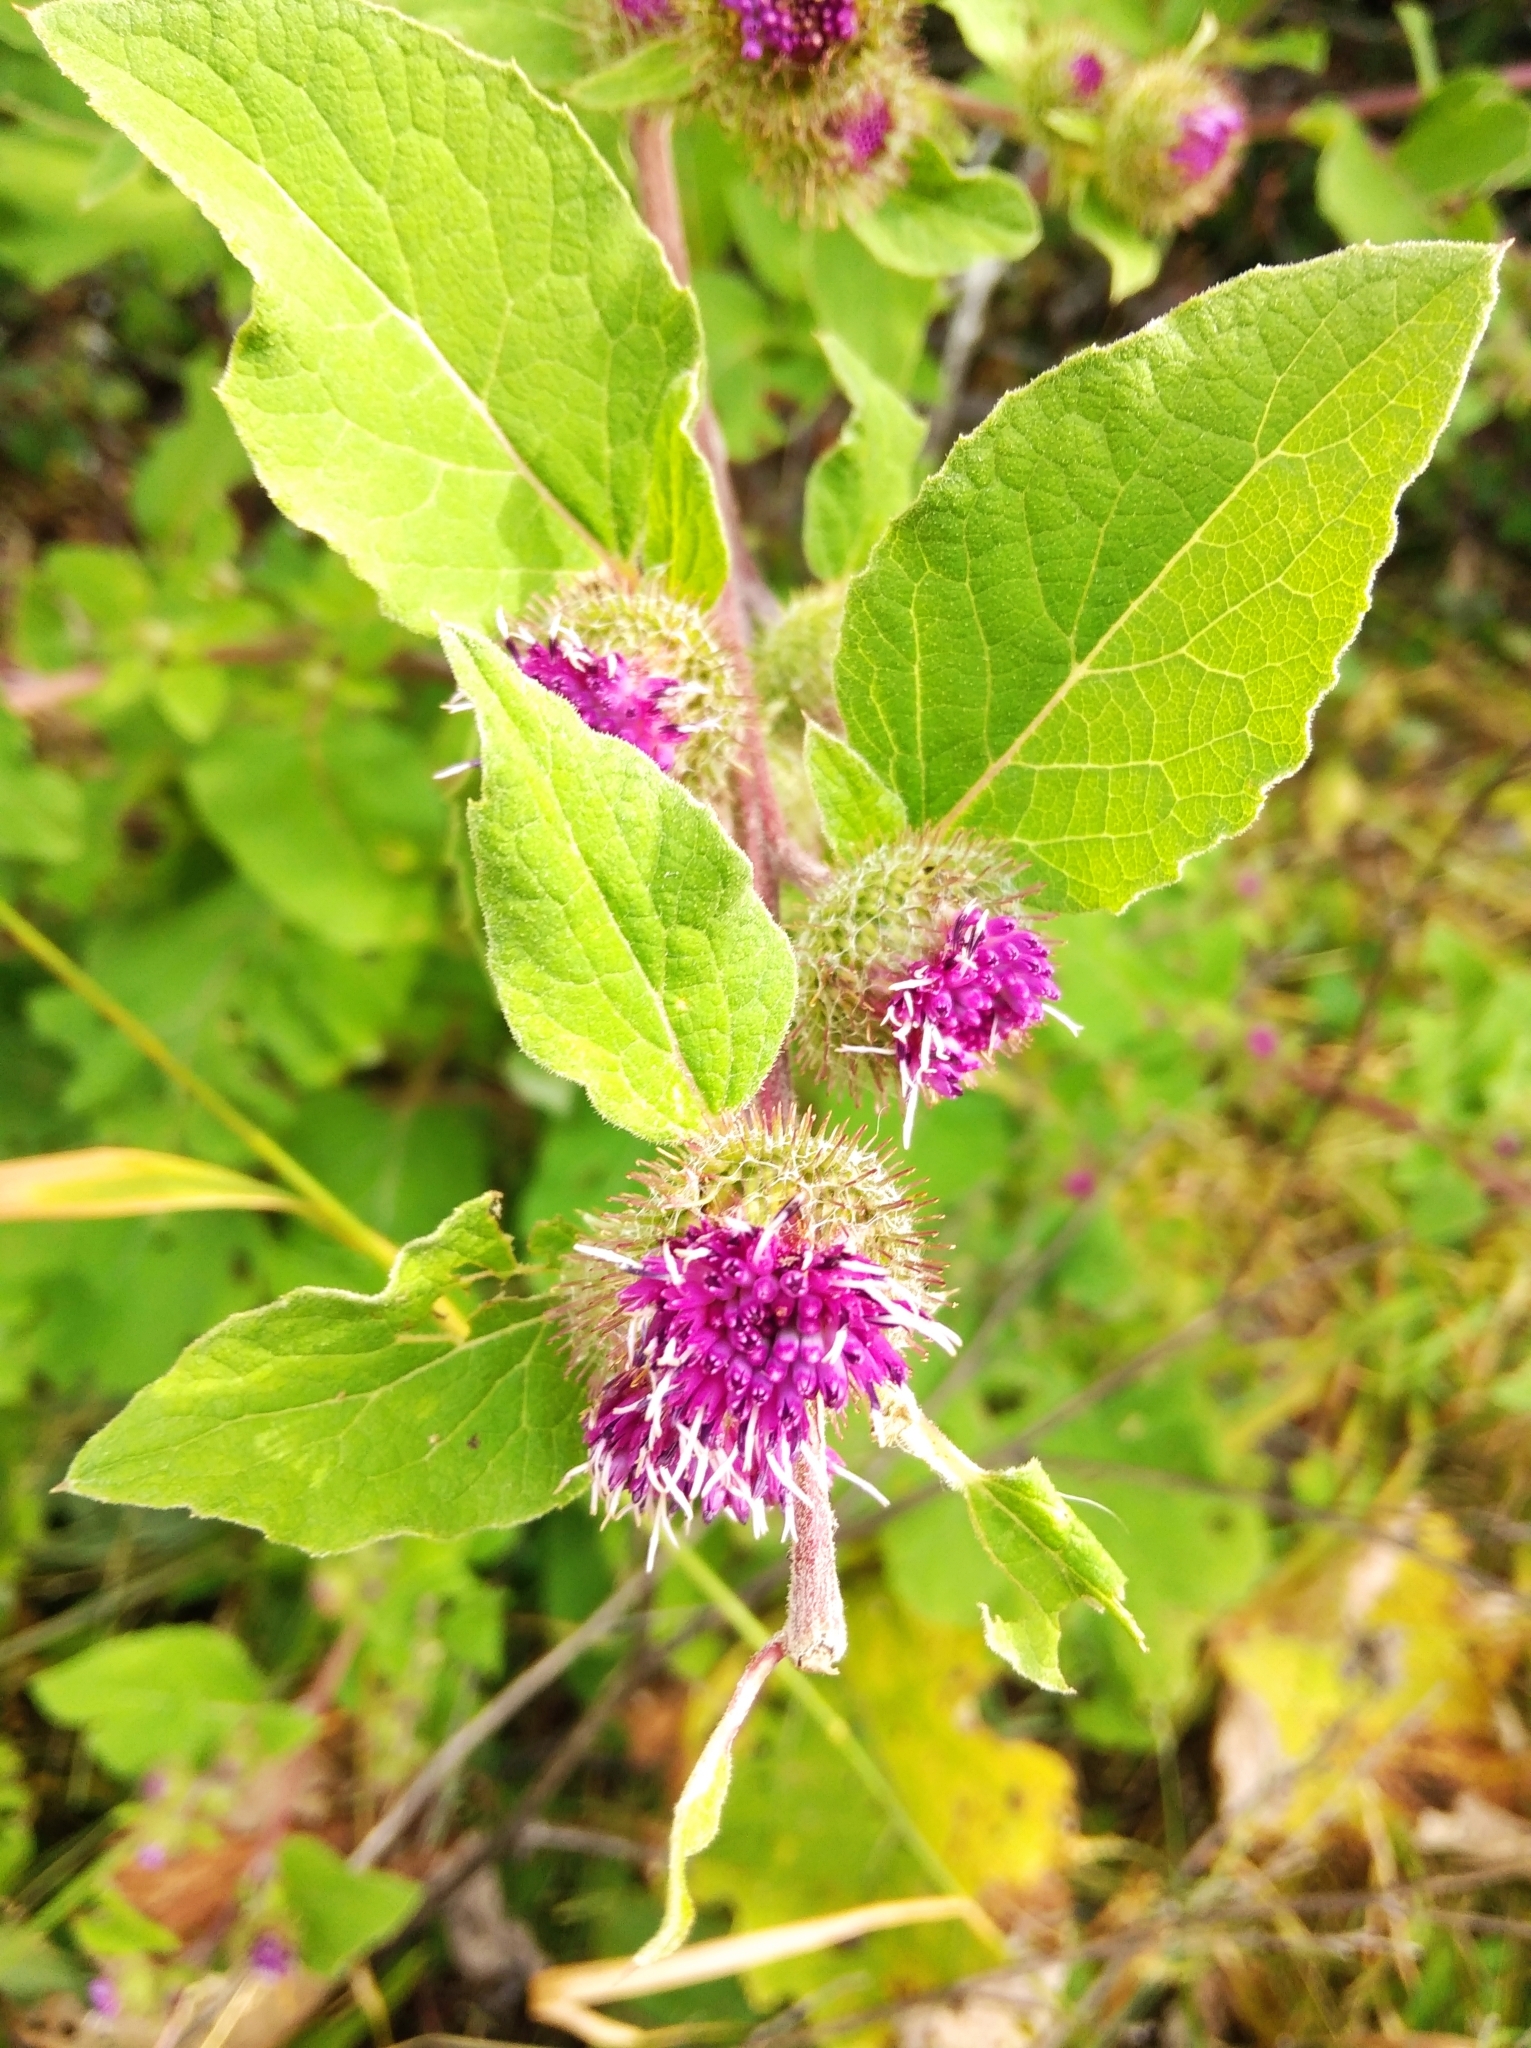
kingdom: Plantae
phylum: Tracheophyta
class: Magnoliopsida
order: Asterales
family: Asteraceae
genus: Arctium
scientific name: Arctium minus
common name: Lesser burdock
